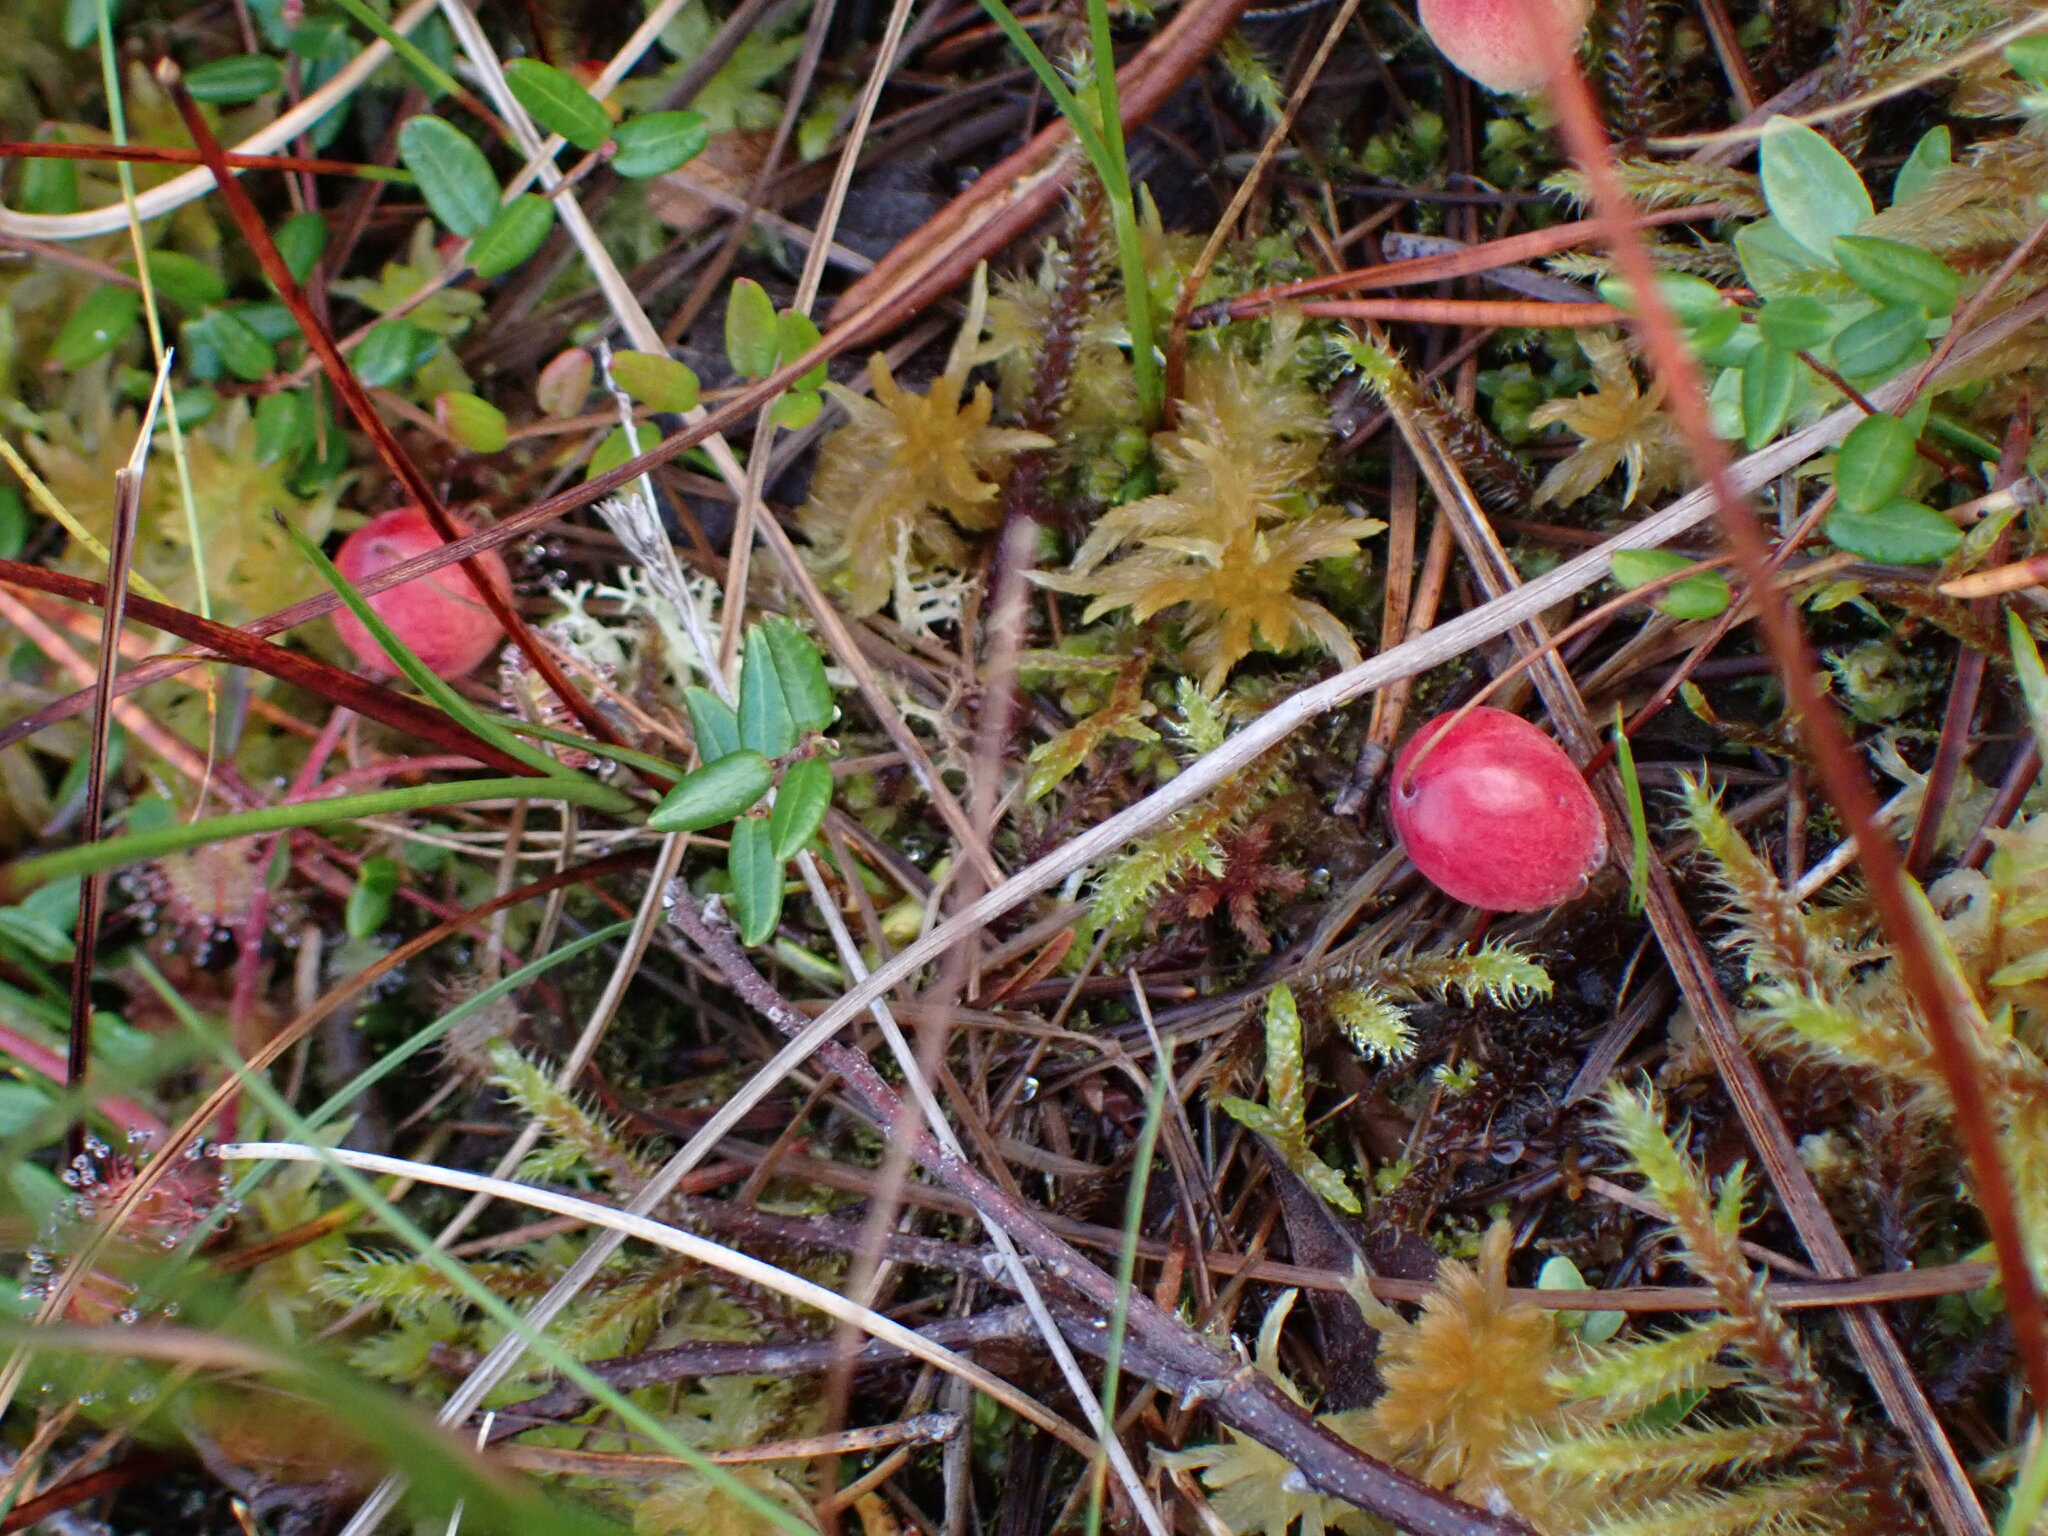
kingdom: Plantae
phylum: Tracheophyta
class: Magnoliopsida
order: Ericales
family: Ericaceae
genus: Vaccinium
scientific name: Vaccinium oxycoccos
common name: Cranberry
